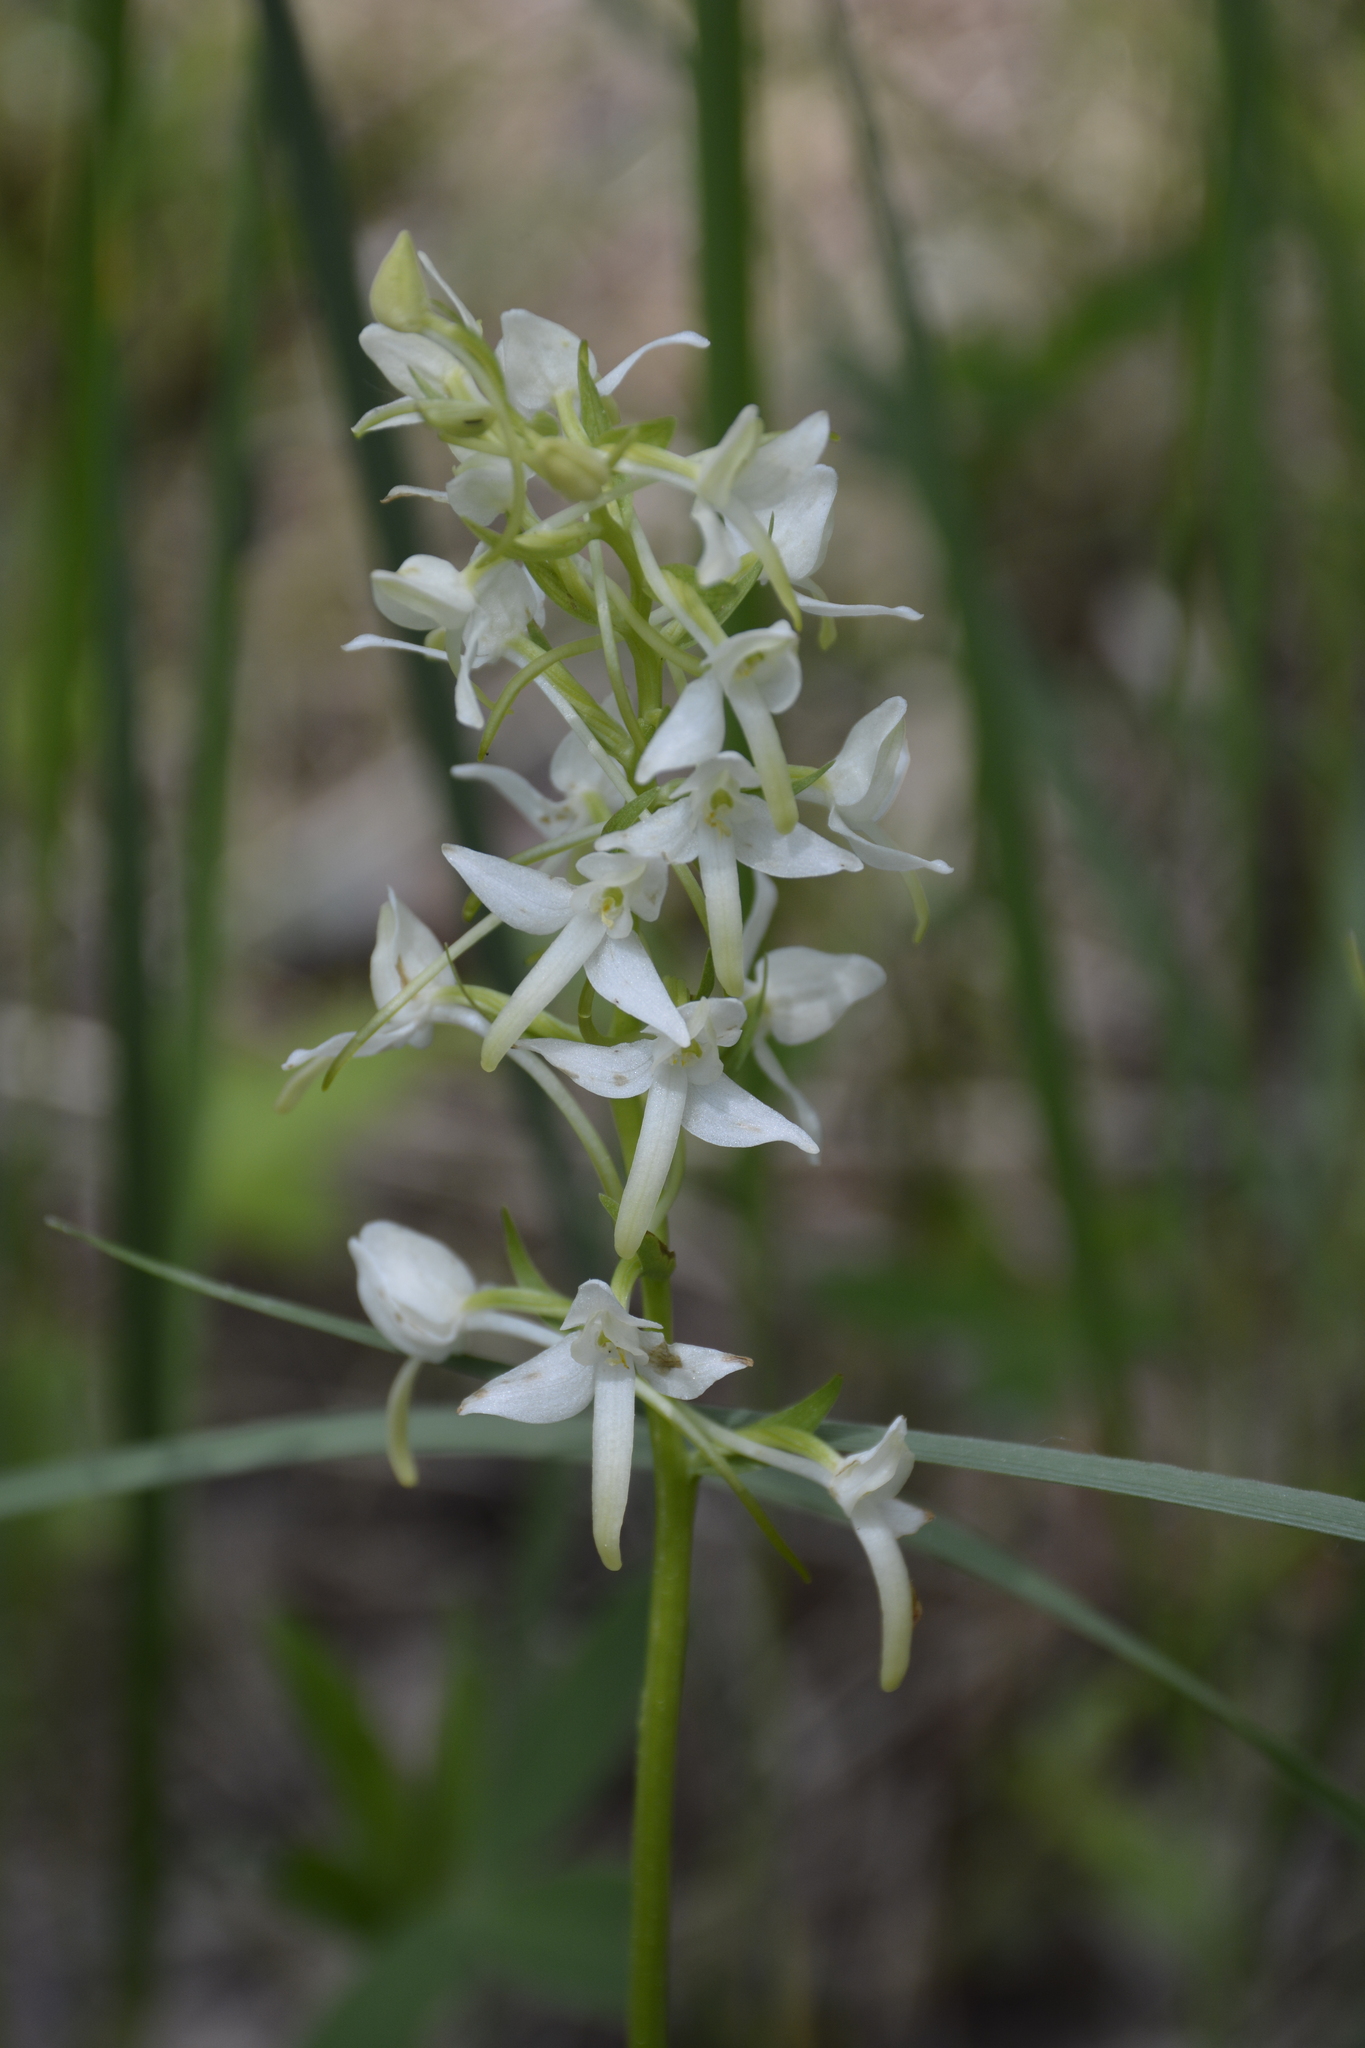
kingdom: Plantae
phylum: Tracheophyta
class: Liliopsida
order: Asparagales
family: Orchidaceae
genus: Platanthera
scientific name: Platanthera bifolia
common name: Lesser butterfly-orchid
